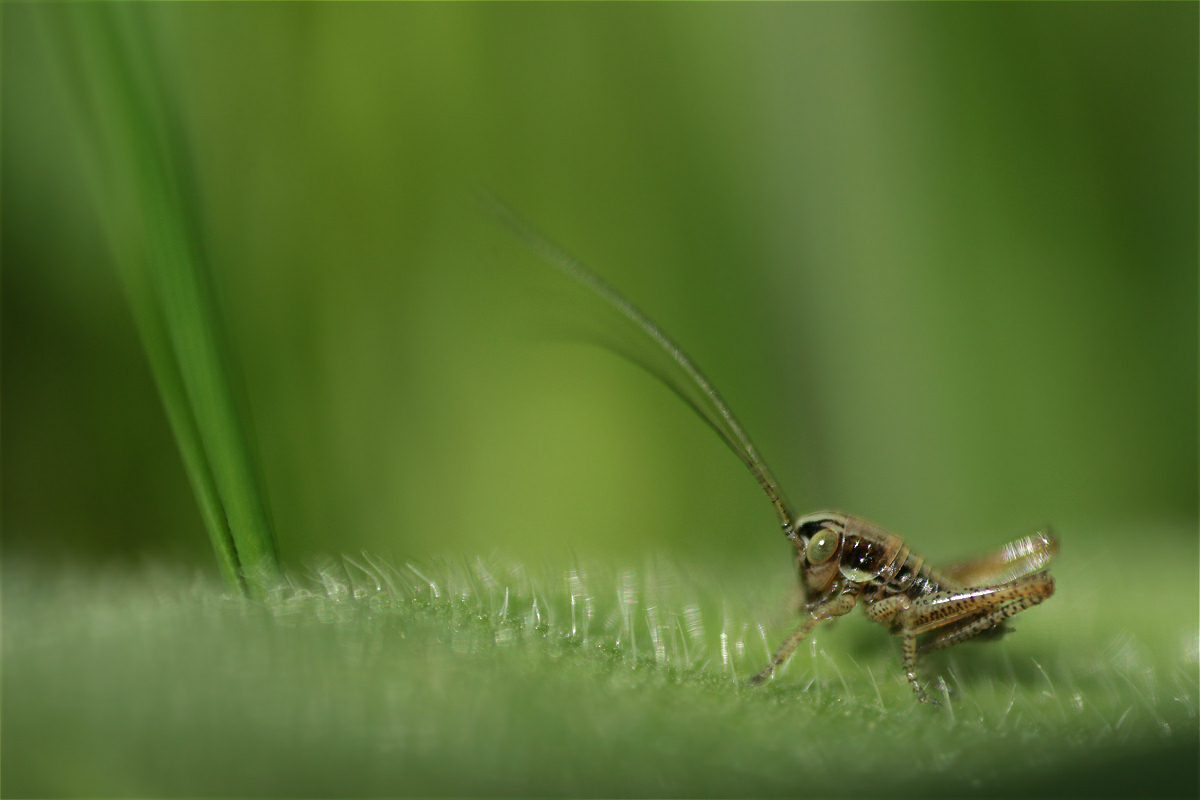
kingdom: Animalia
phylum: Arthropoda
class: Insecta
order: Orthoptera
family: Tettigoniidae
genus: Roeseliana
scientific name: Roeseliana roeselii
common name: Roesel's bush cricket
